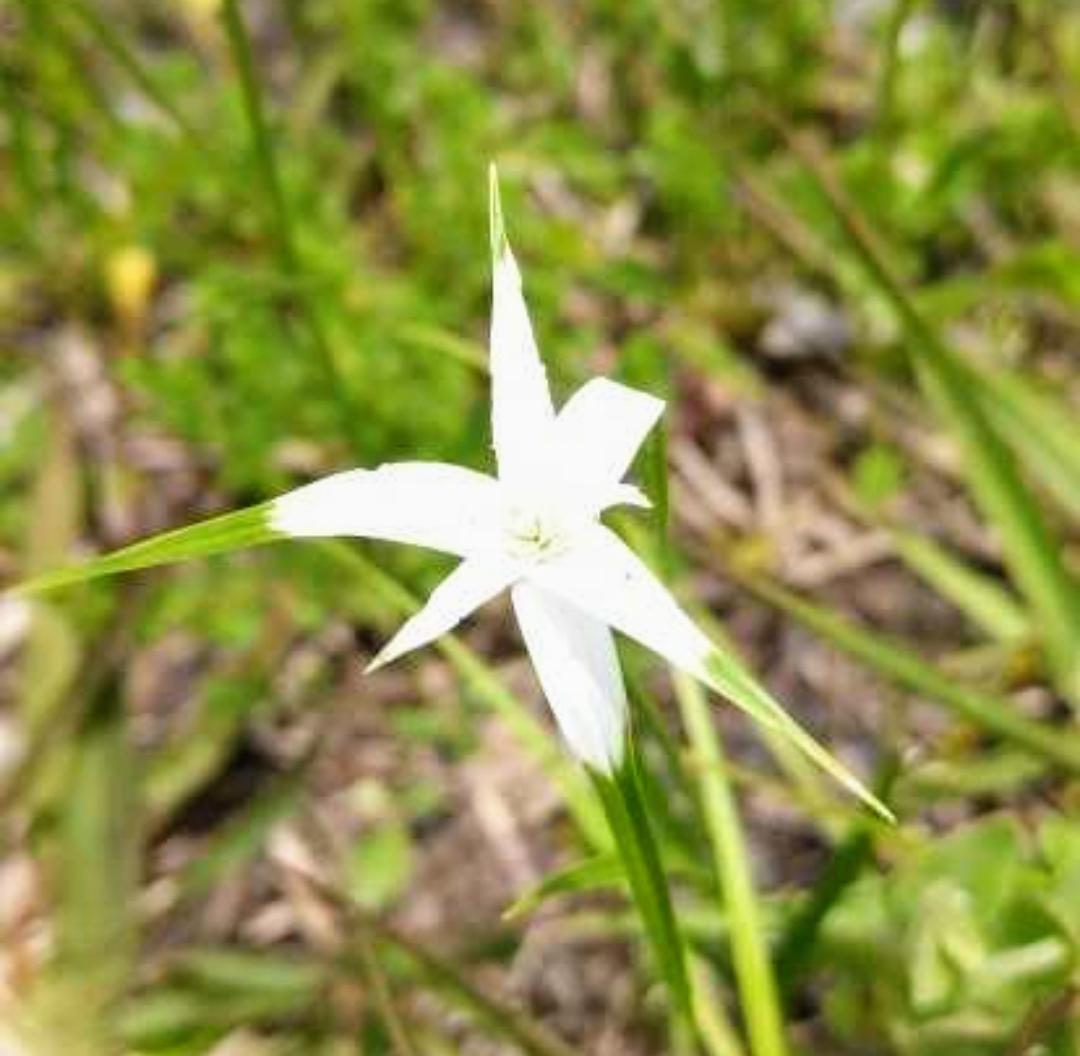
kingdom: Plantae
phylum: Tracheophyta
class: Liliopsida
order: Poales
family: Cyperaceae
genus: Rhynchospora
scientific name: Rhynchospora latifolia
